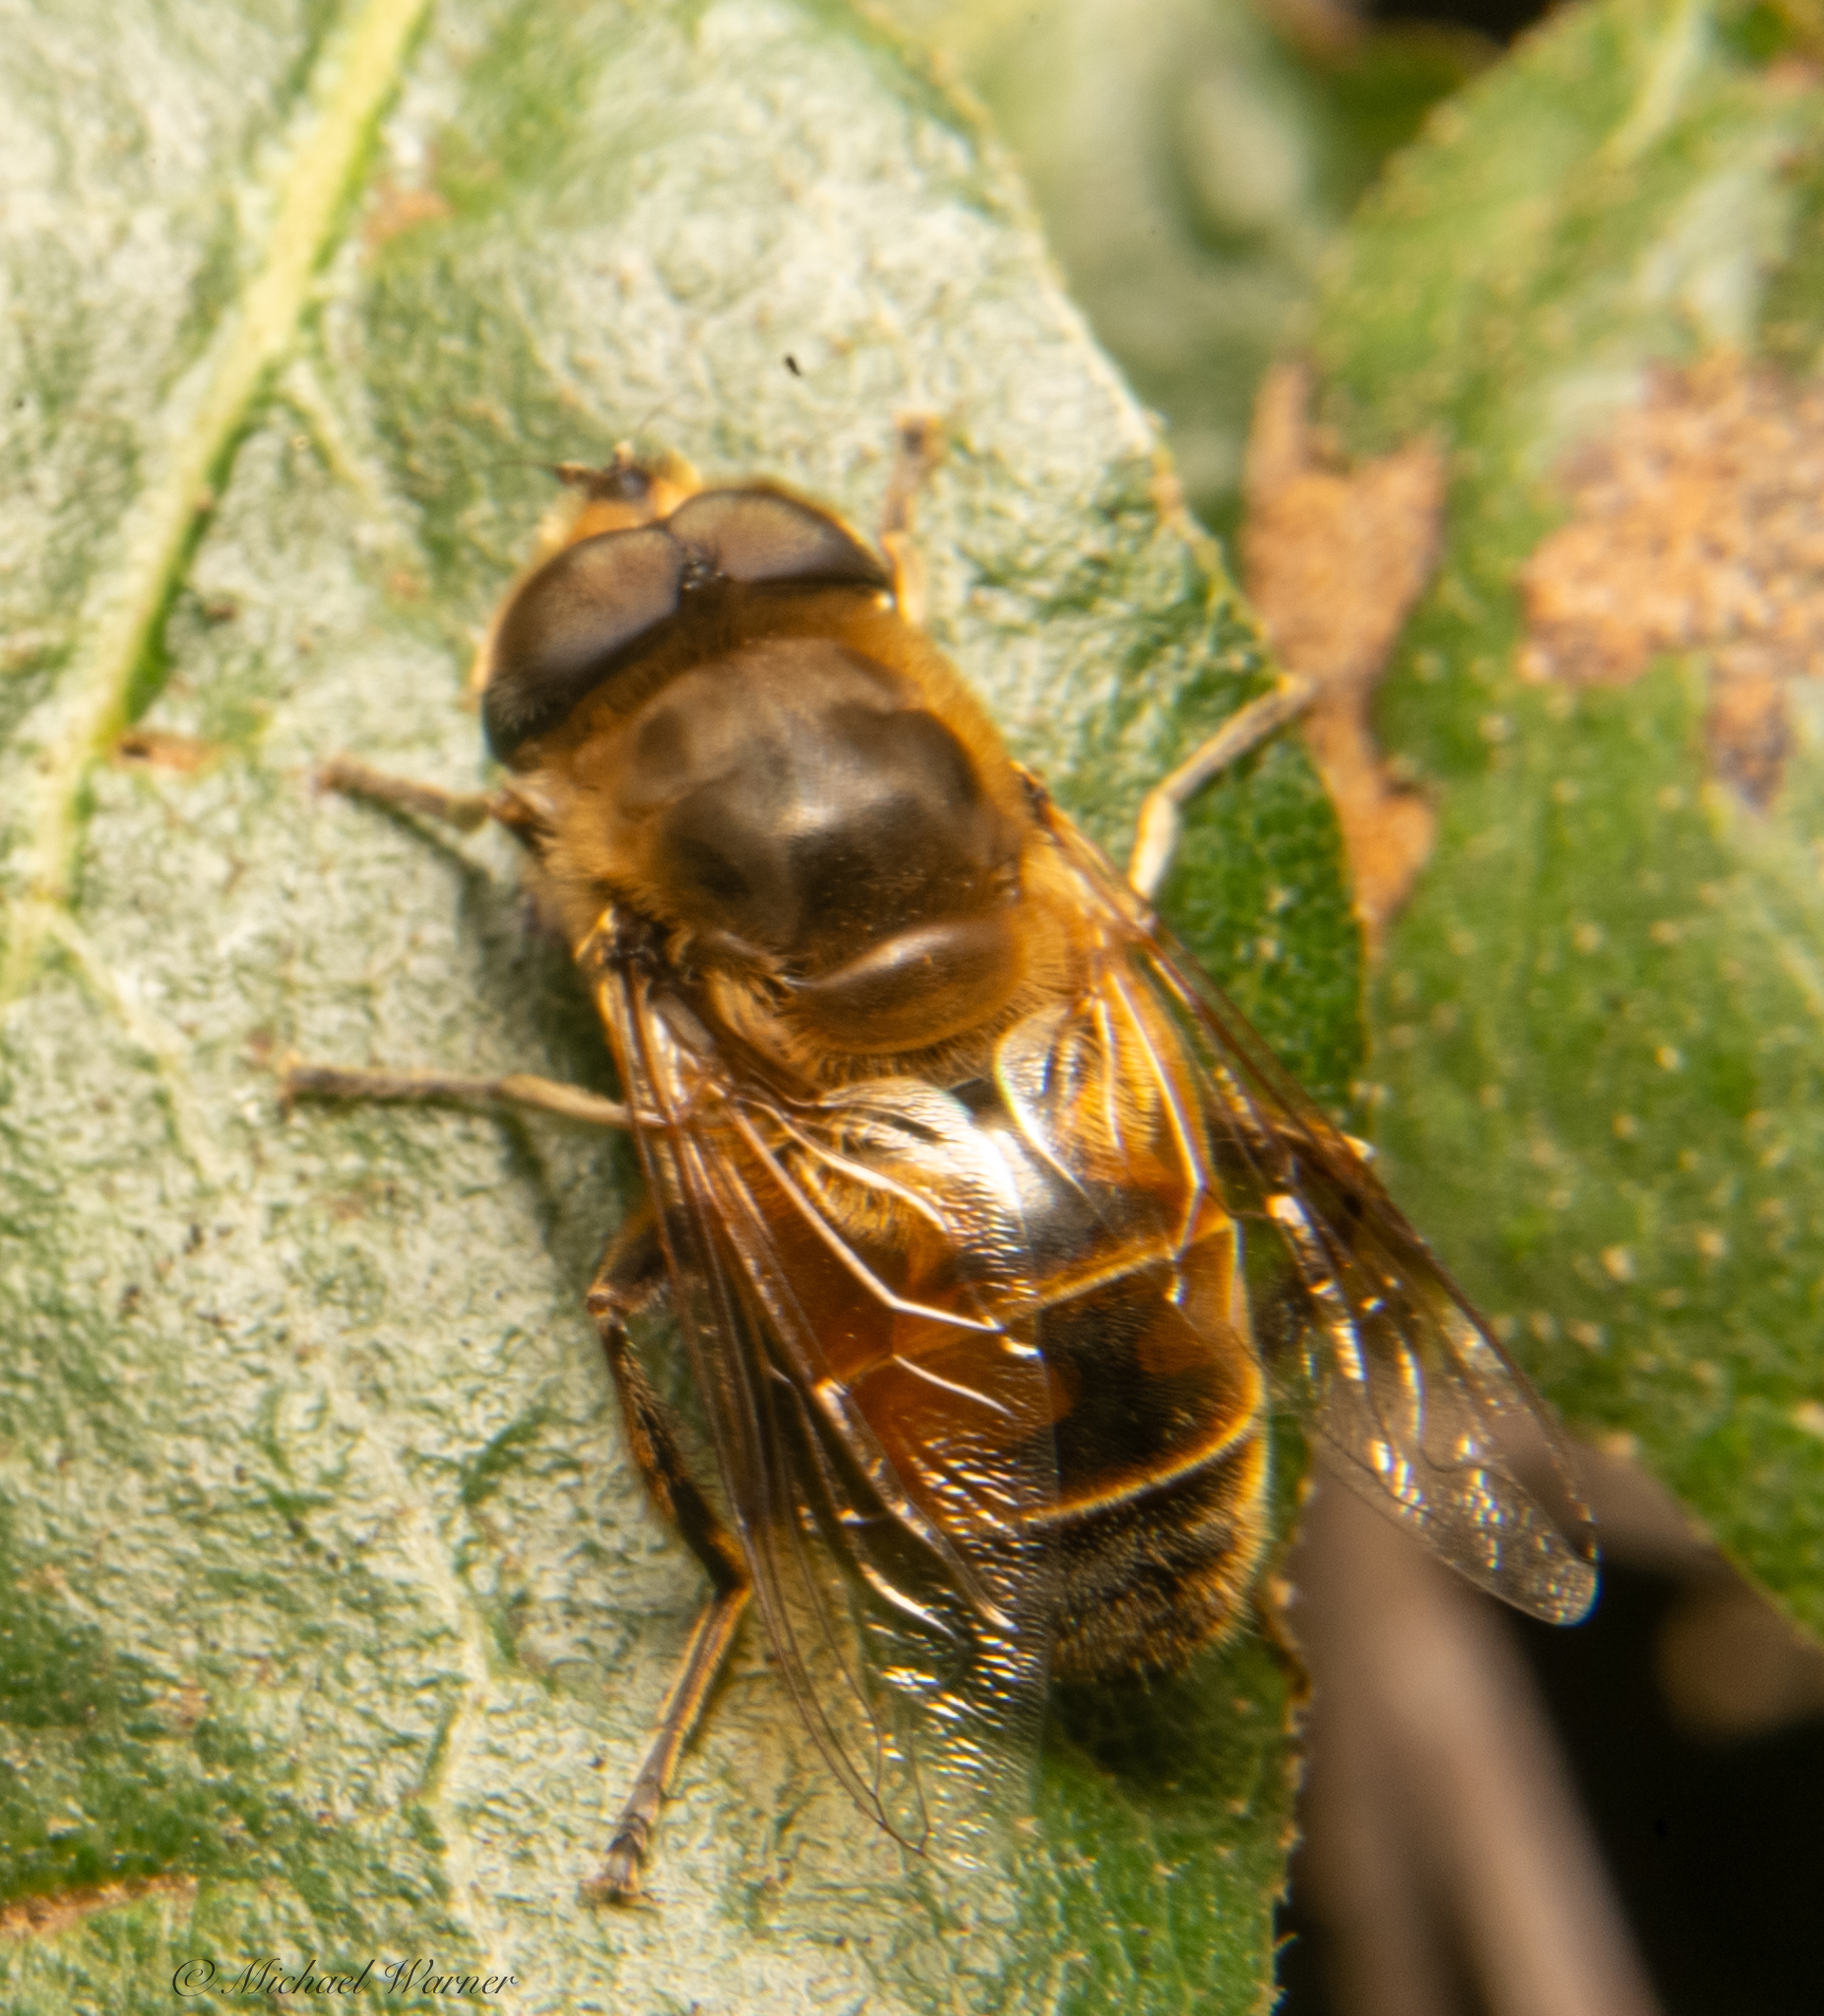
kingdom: Animalia
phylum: Arthropoda
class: Insecta
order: Diptera
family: Syrphidae
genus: Eristalis
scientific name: Eristalis tenax
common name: Drone fly
